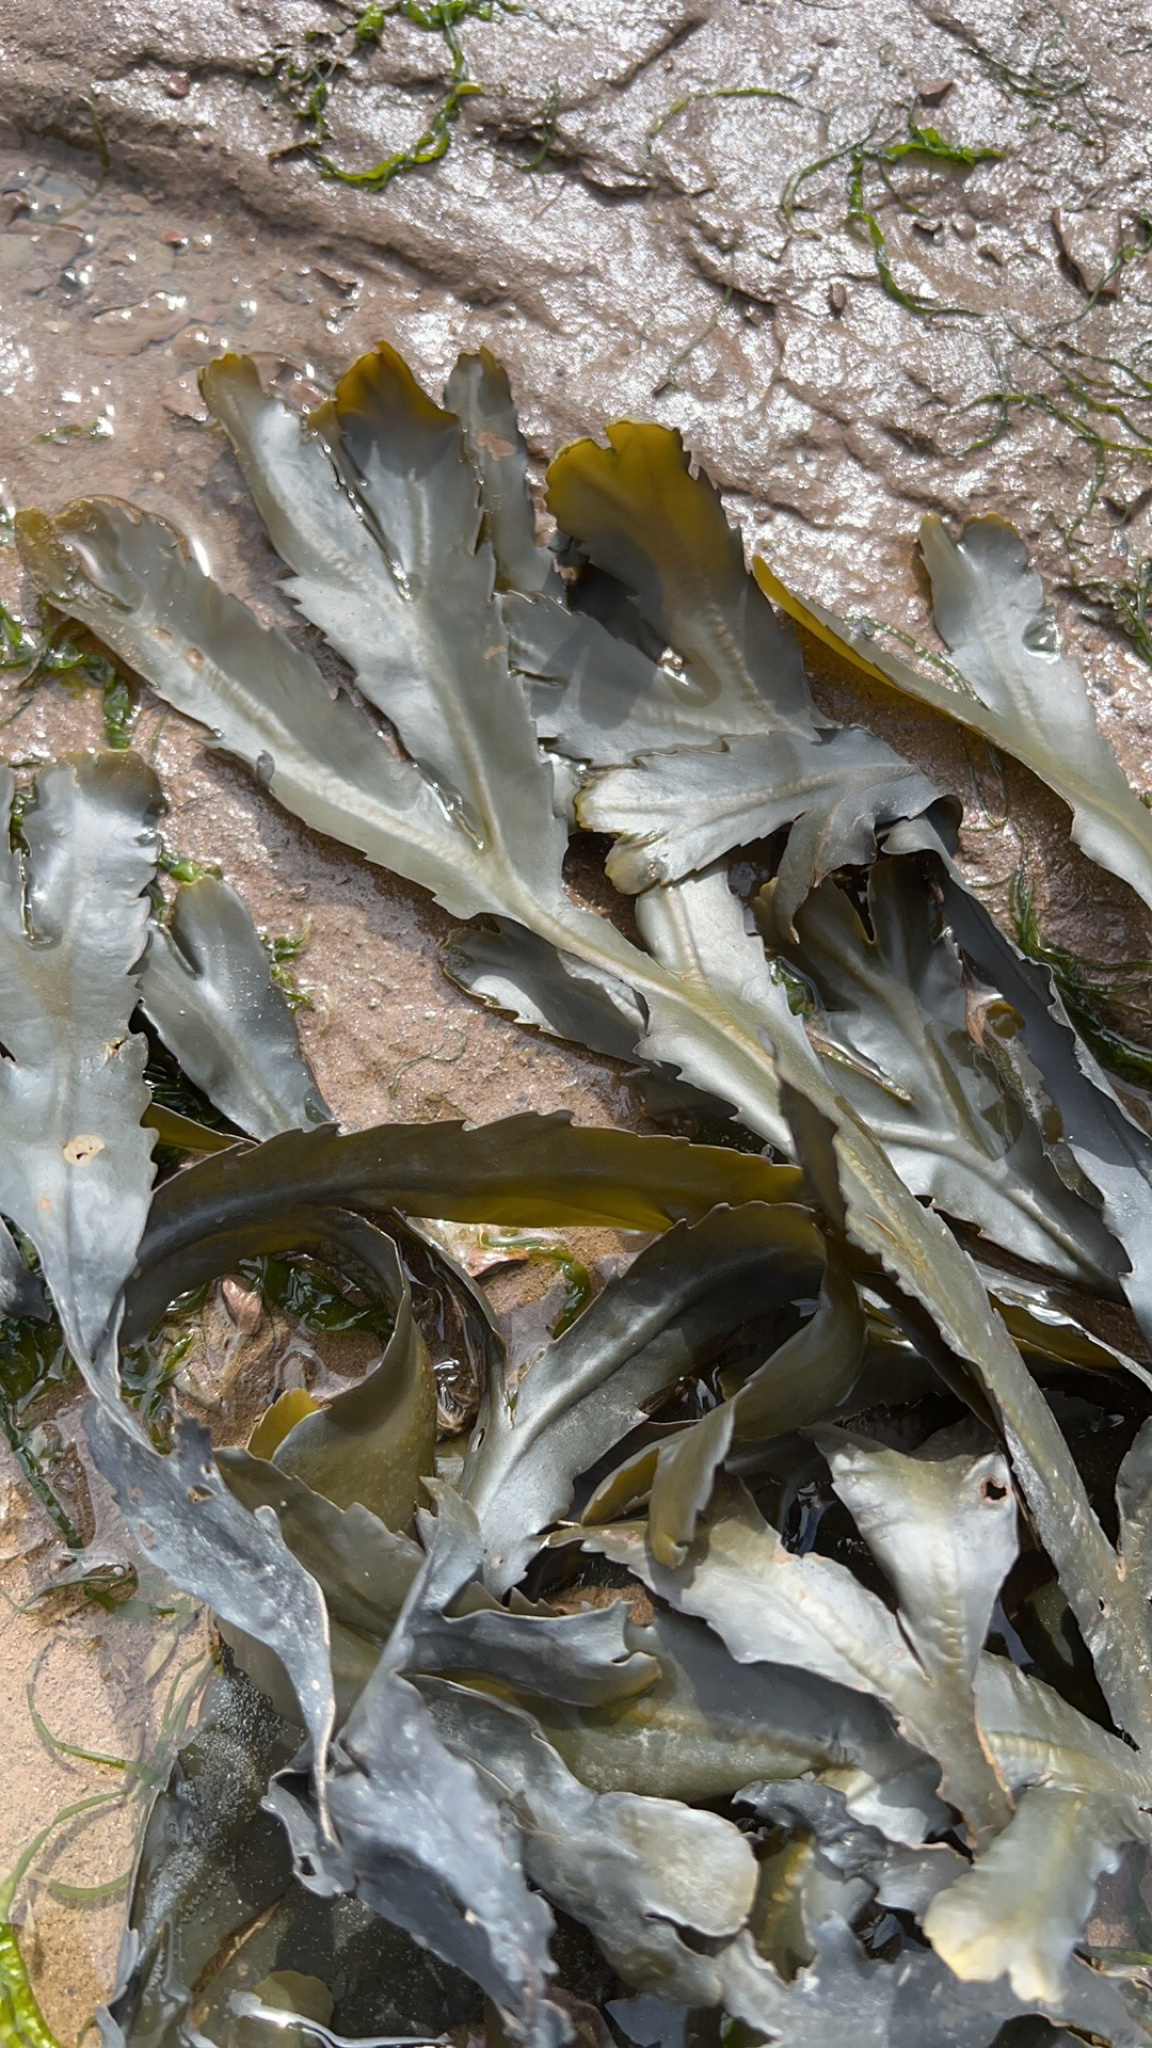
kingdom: Chromista
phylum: Ochrophyta
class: Phaeophyceae
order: Fucales
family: Fucaceae
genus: Fucus
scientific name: Fucus serratus
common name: Toothed wrack
